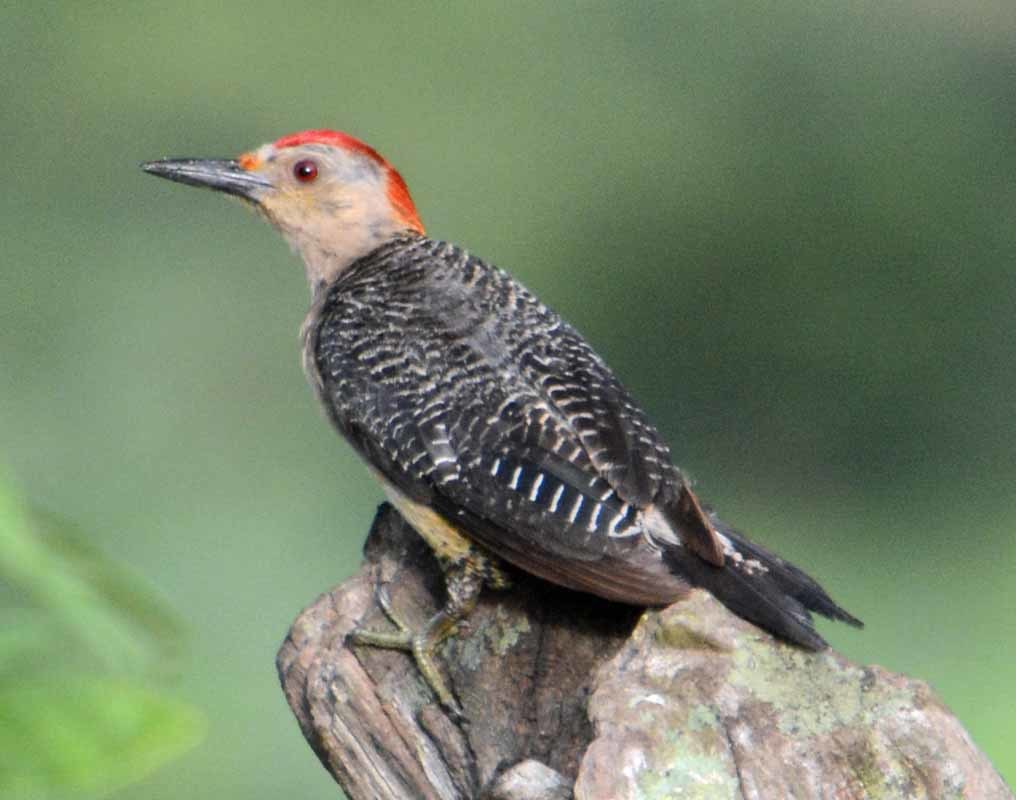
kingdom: Animalia
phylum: Chordata
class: Aves
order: Piciformes
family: Picidae
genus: Melanerpes
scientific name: Melanerpes aurifrons
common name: Golden-fronted woodpecker
